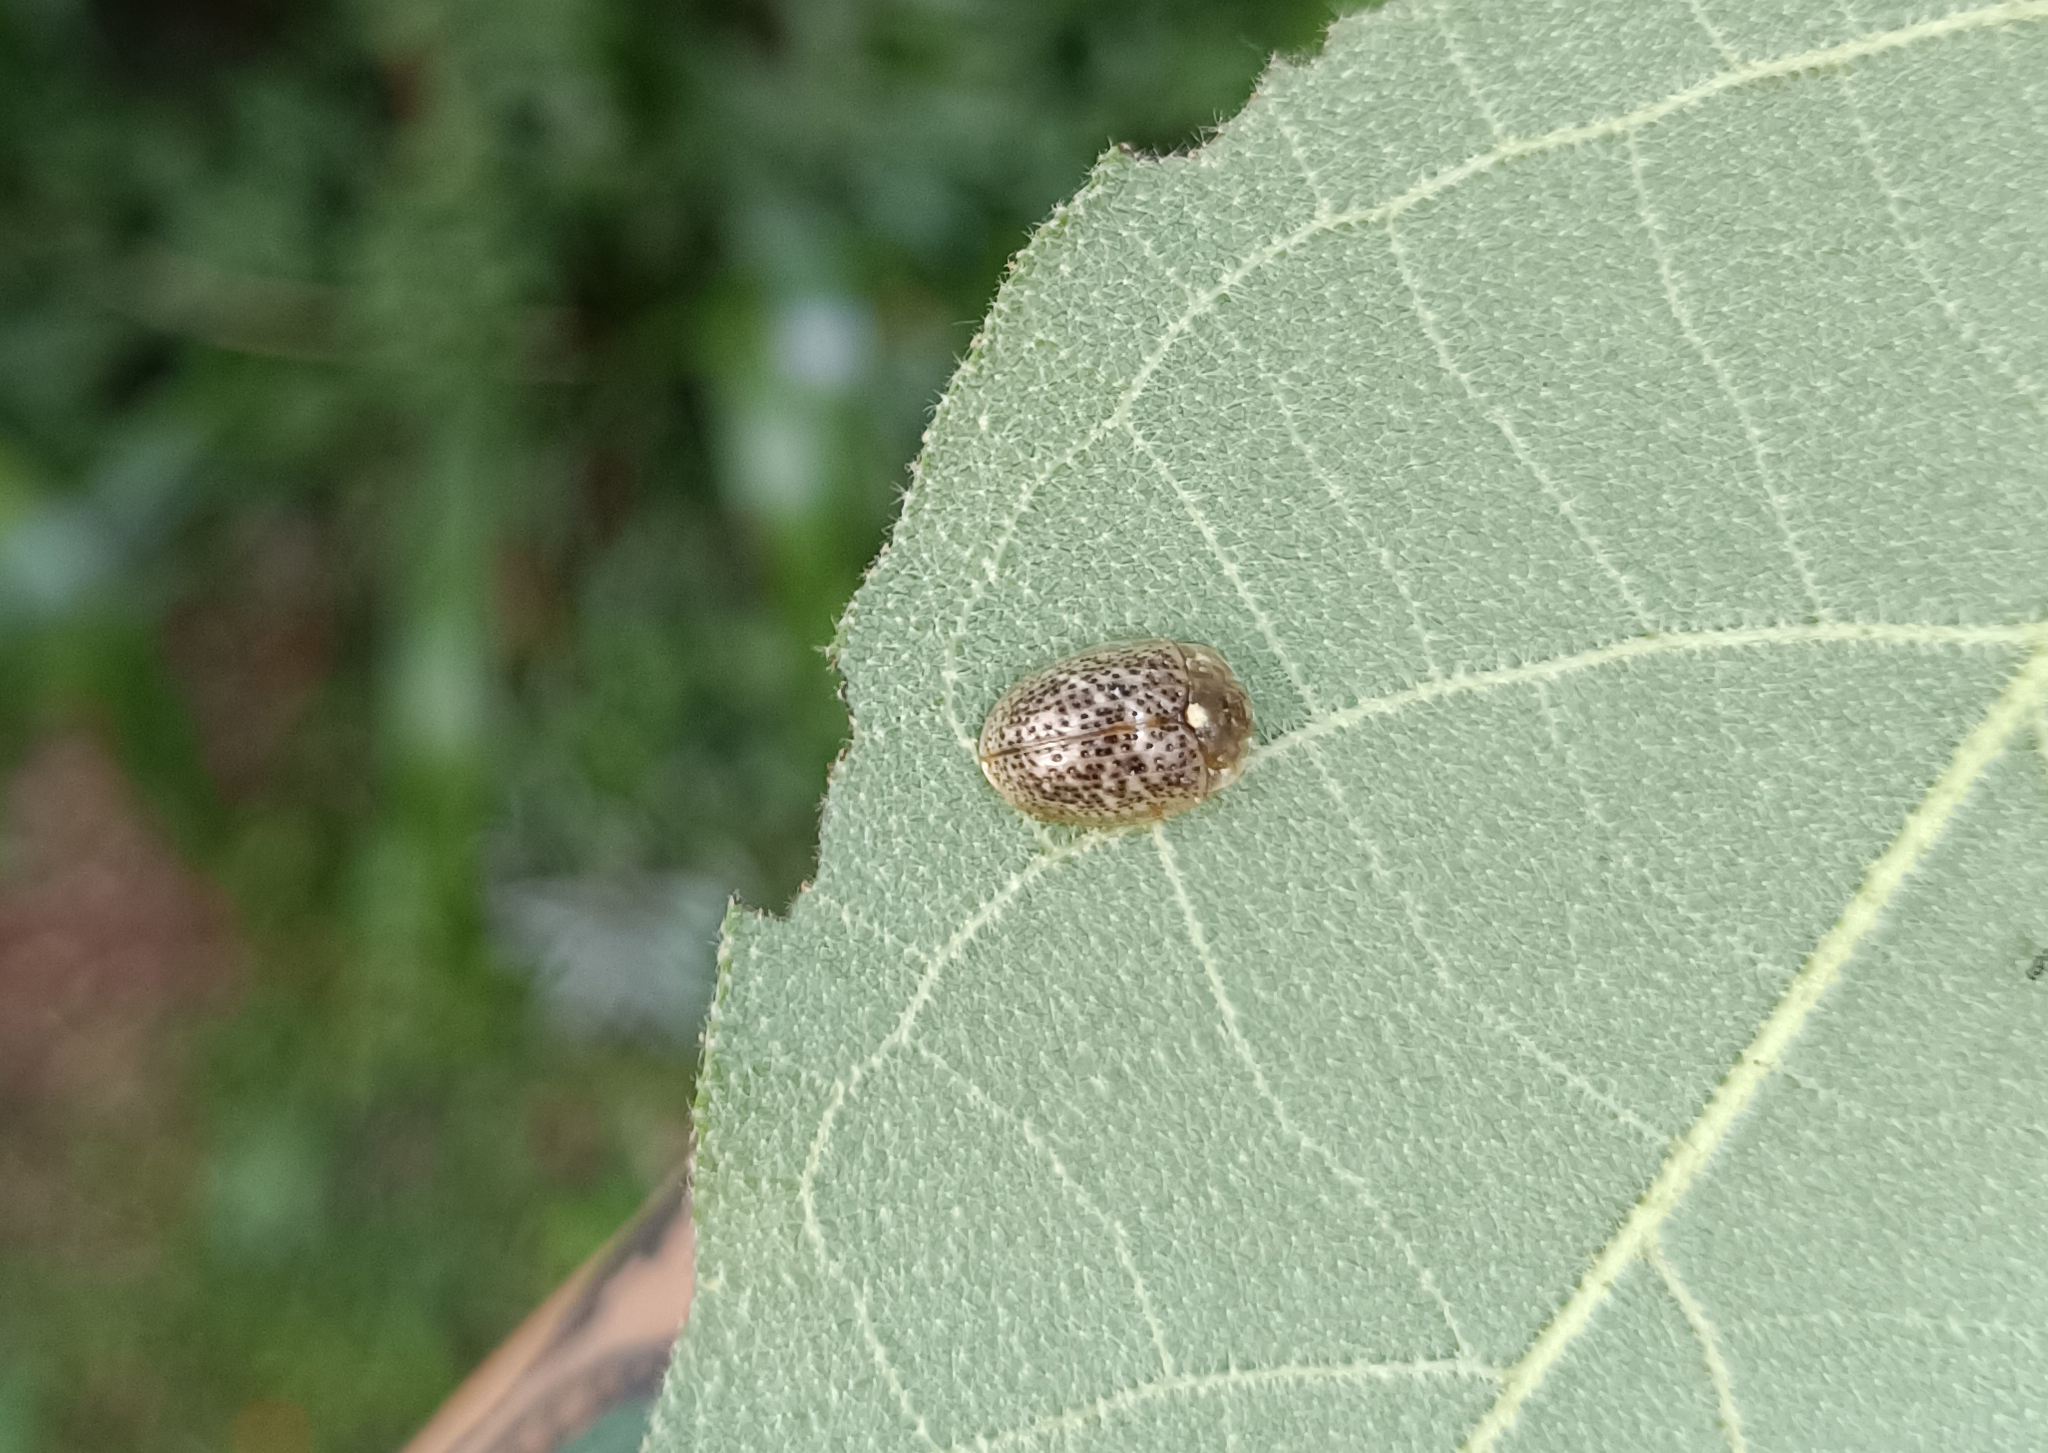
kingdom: Animalia
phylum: Arthropoda
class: Insecta
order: Coleoptera
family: Chrysomelidae
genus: Cistudinella
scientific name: Cistudinella obducta
